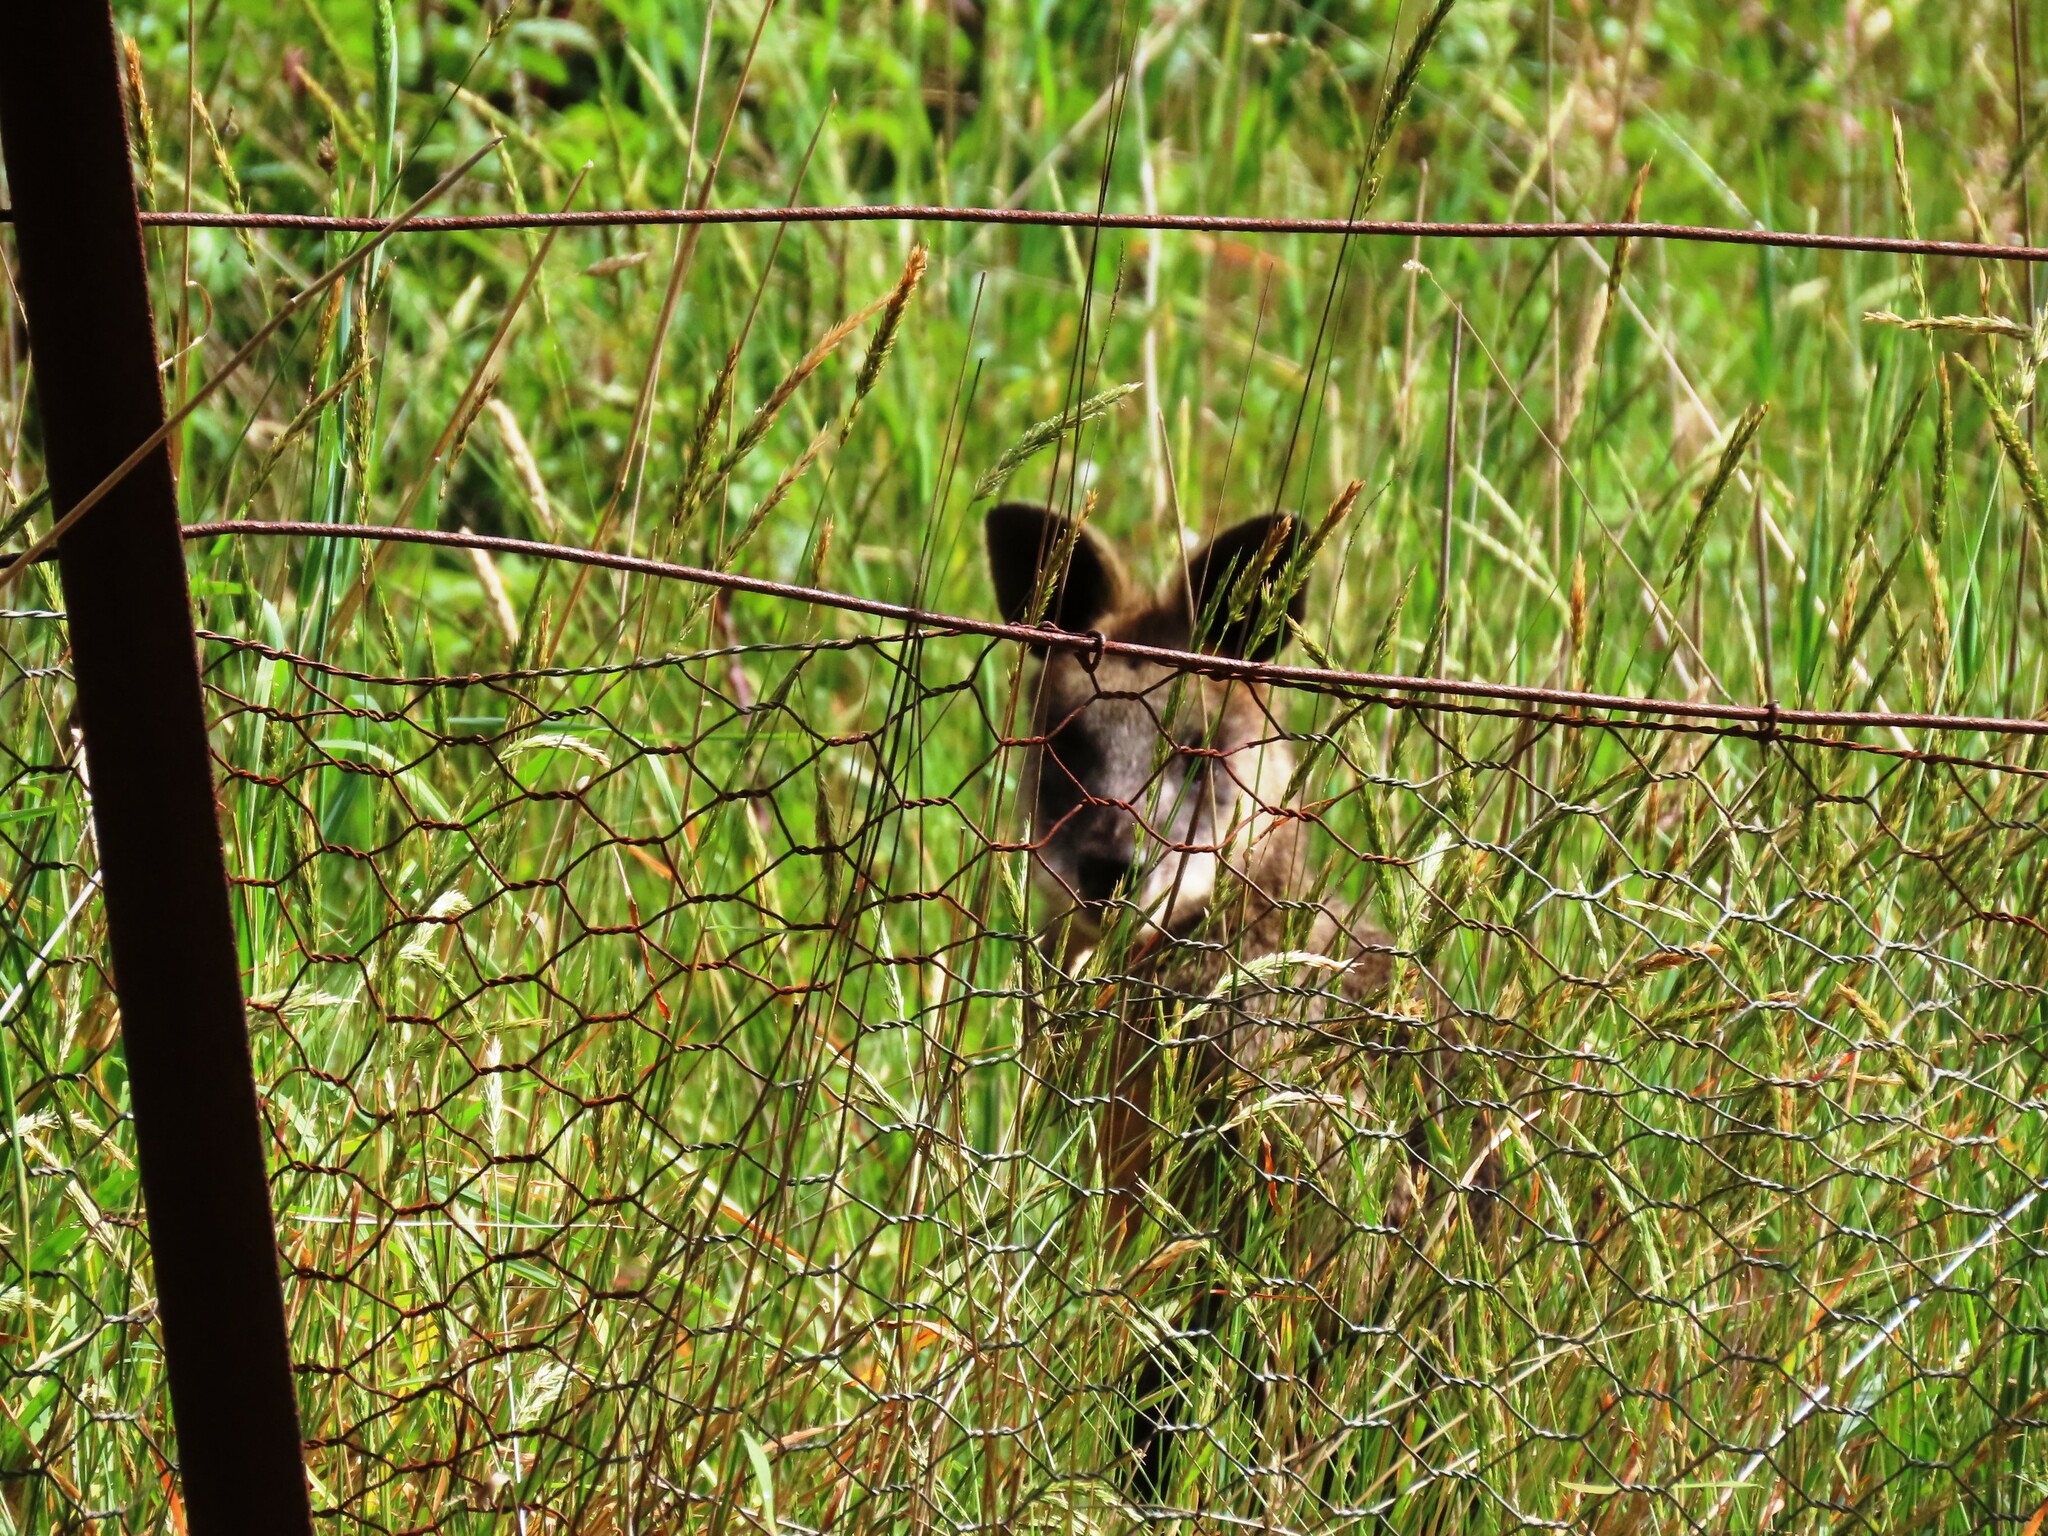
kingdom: Animalia
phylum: Chordata
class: Mammalia
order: Diprotodontia
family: Macropodidae
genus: Wallabia
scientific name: Wallabia bicolor
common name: Swamp wallaby
